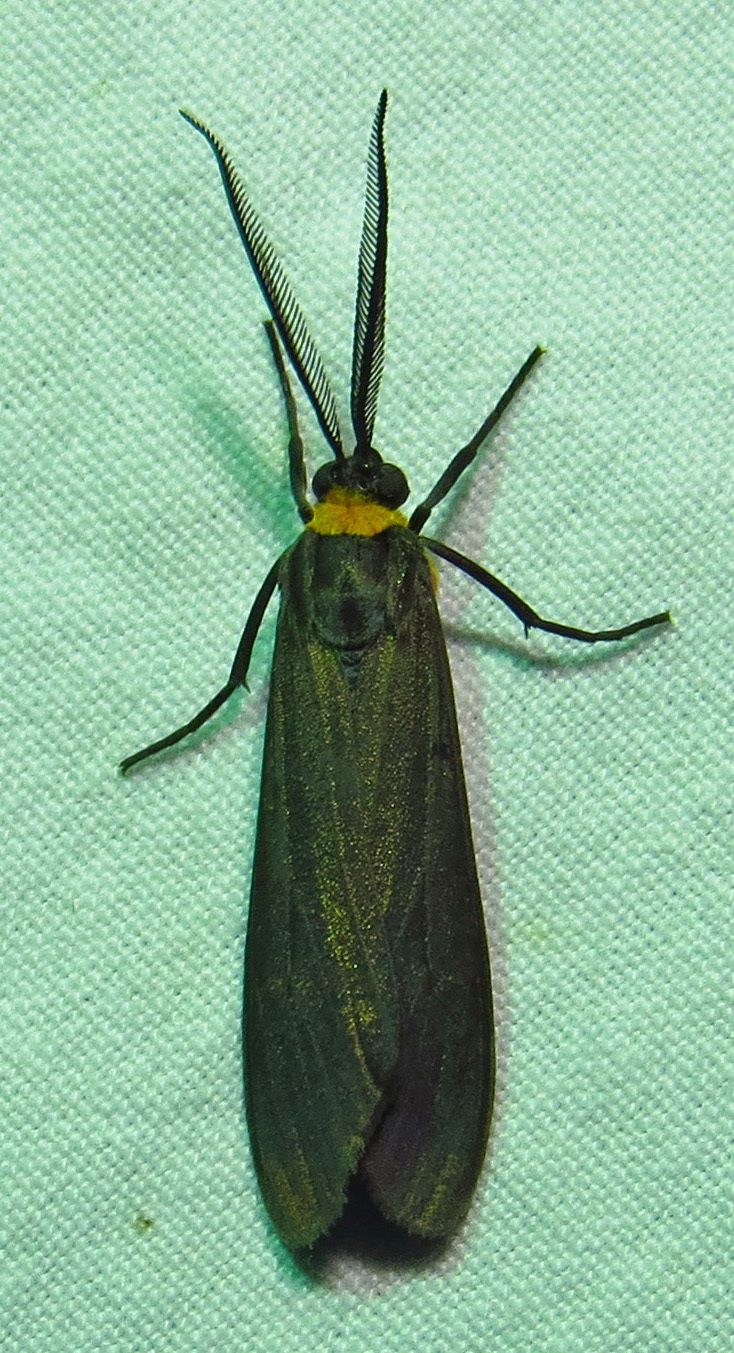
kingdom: Animalia
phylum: Arthropoda
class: Insecta
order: Lepidoptera
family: Erebidae
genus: Cisseps
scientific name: Cisseps fulvicollis
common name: Yellow-collared scape moth
